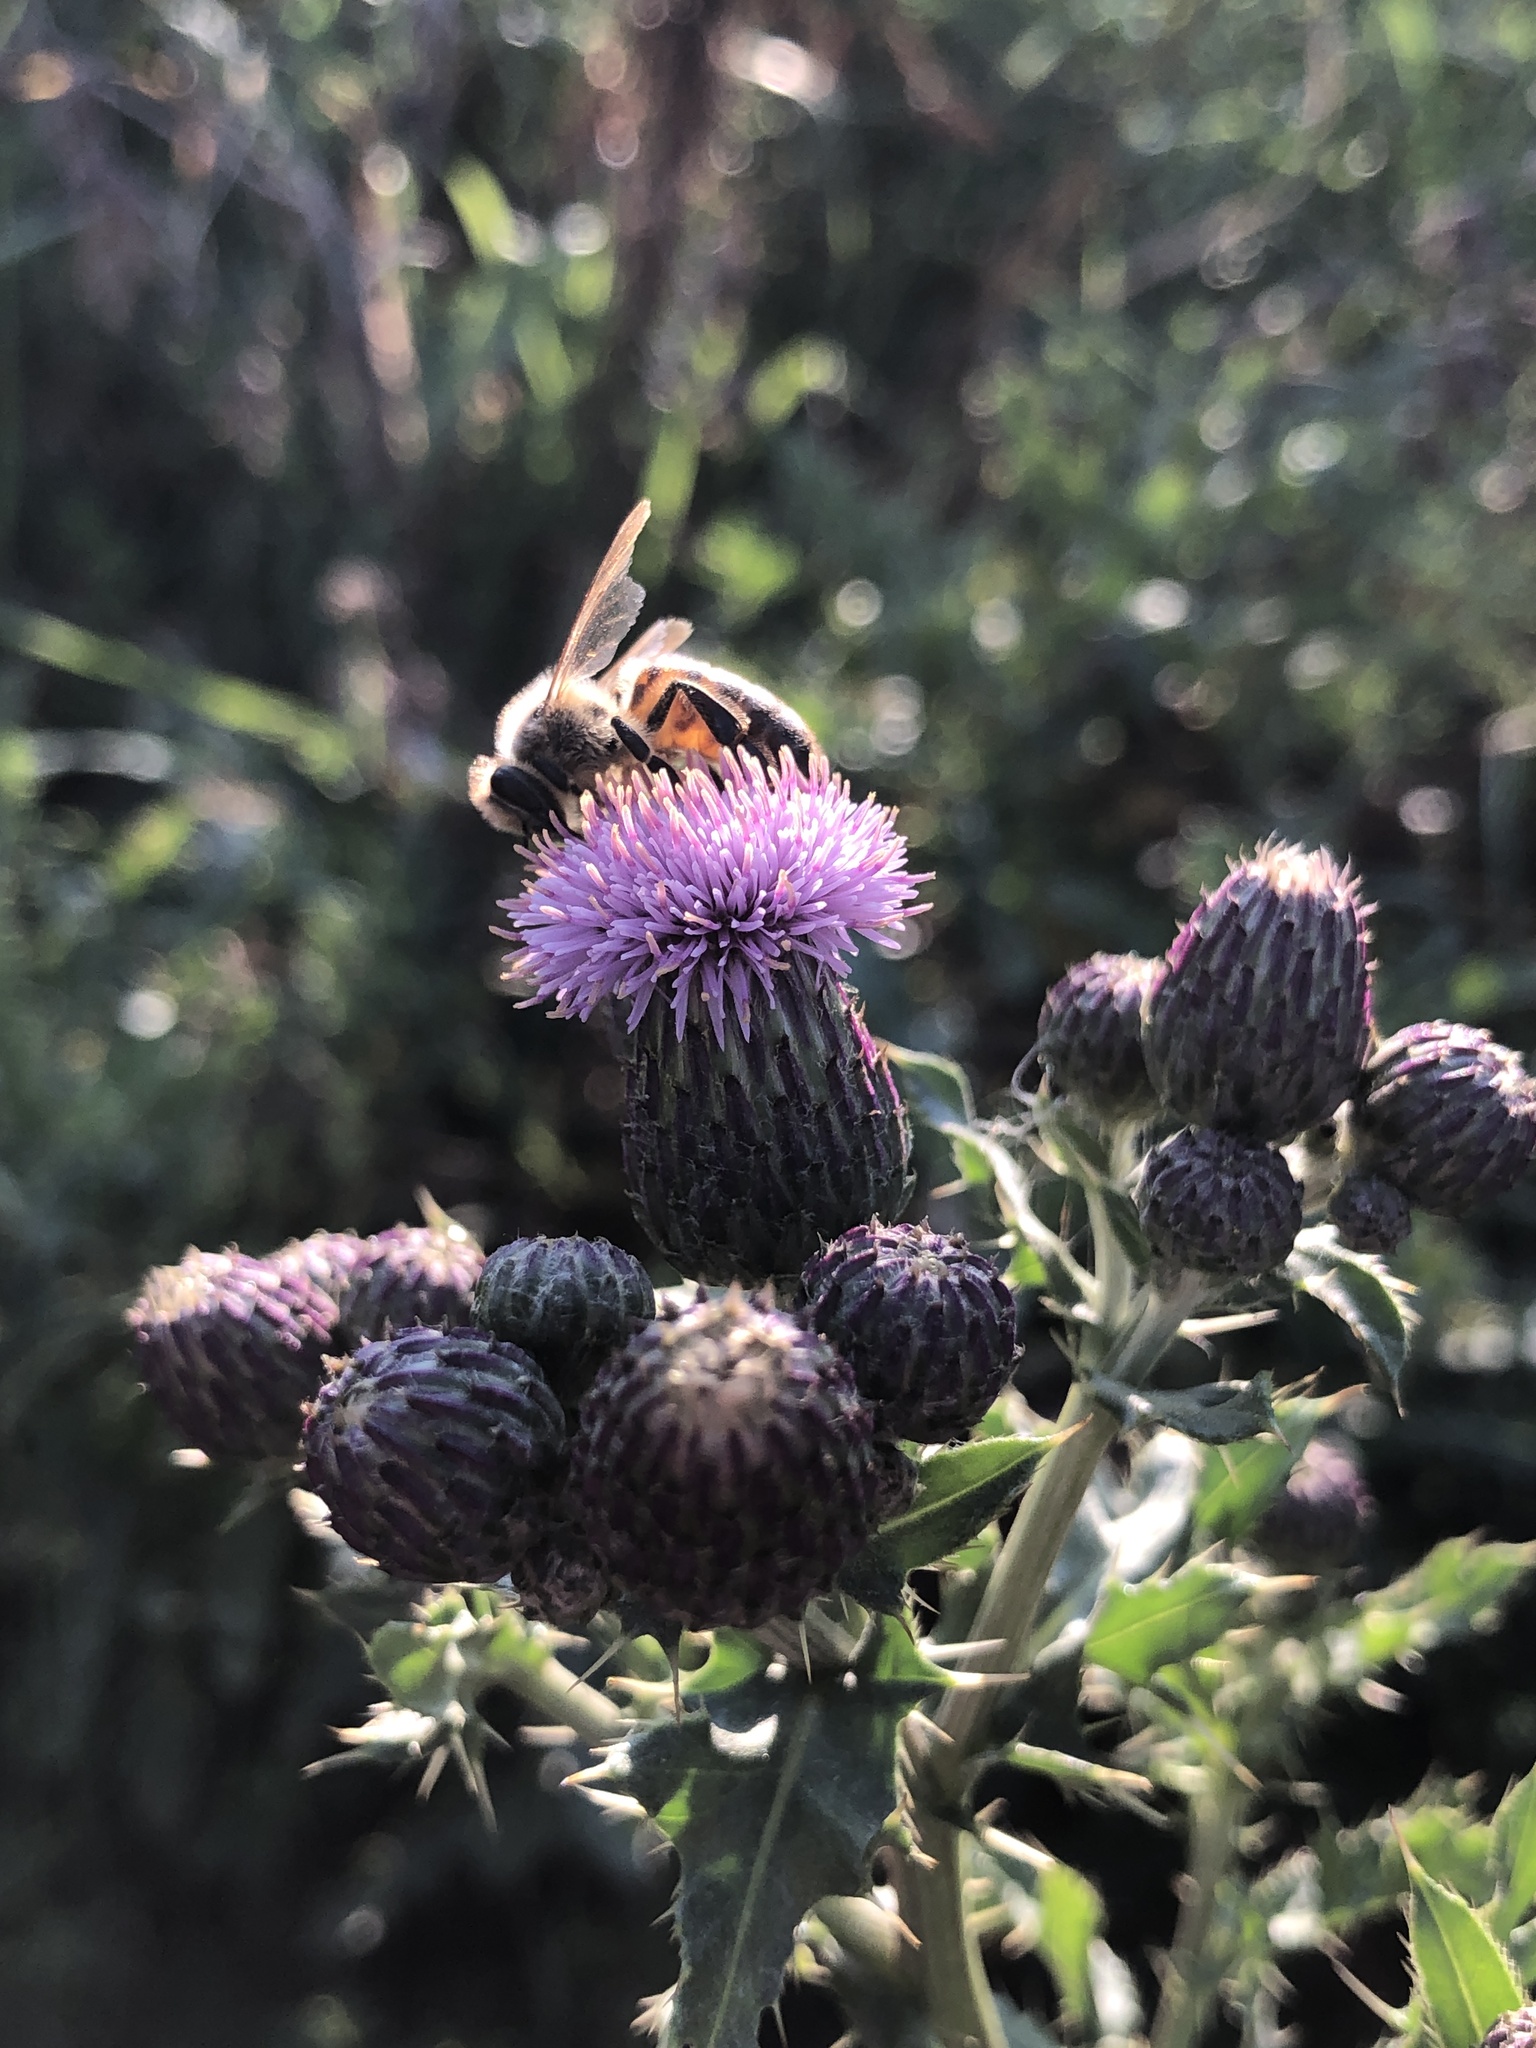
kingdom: Animalia
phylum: Arthropoda
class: Insecta
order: Hymenoptera
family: Apidae
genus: Apis
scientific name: Apis mellifera
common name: Honey bee
